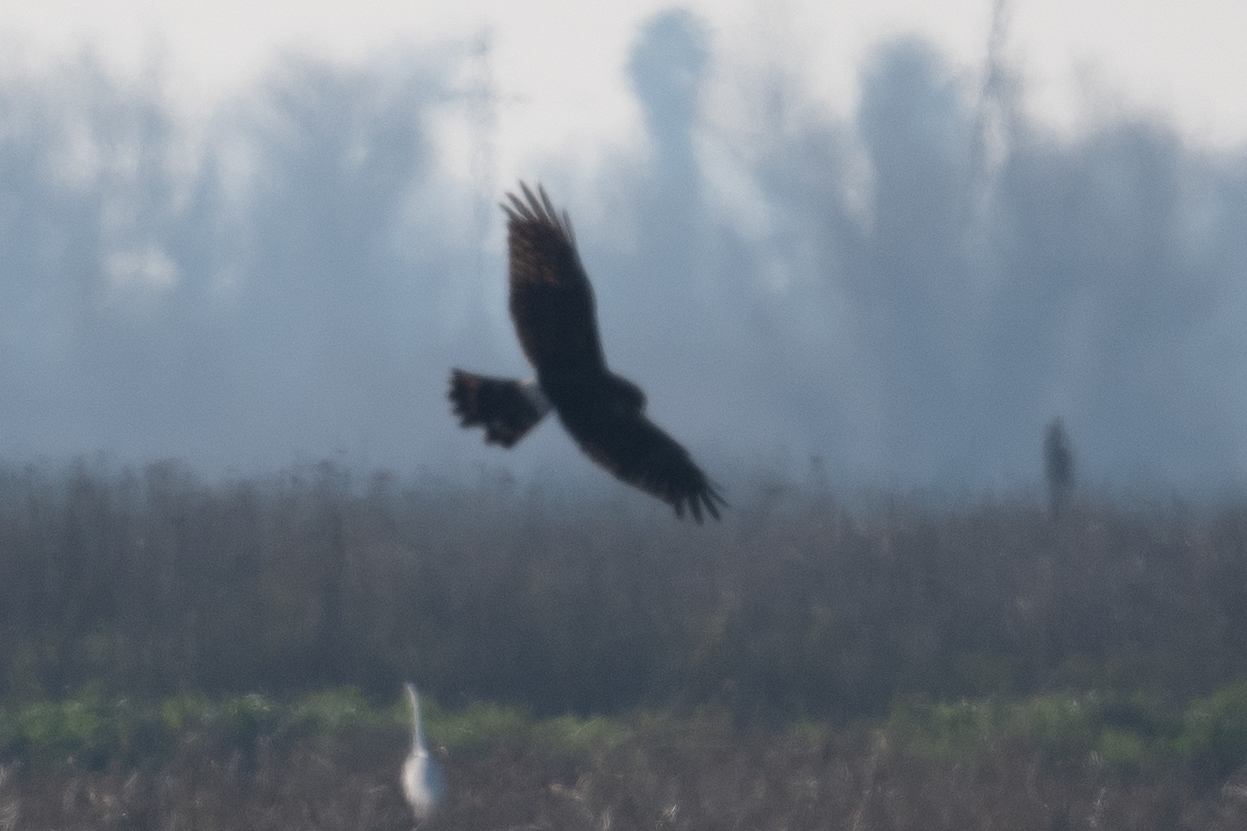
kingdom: Animalia
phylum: Chordata
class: Aves
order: Accipitriformes
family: Accipitridae
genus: Circus
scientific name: Circus cyaneus
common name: Hen harrier
